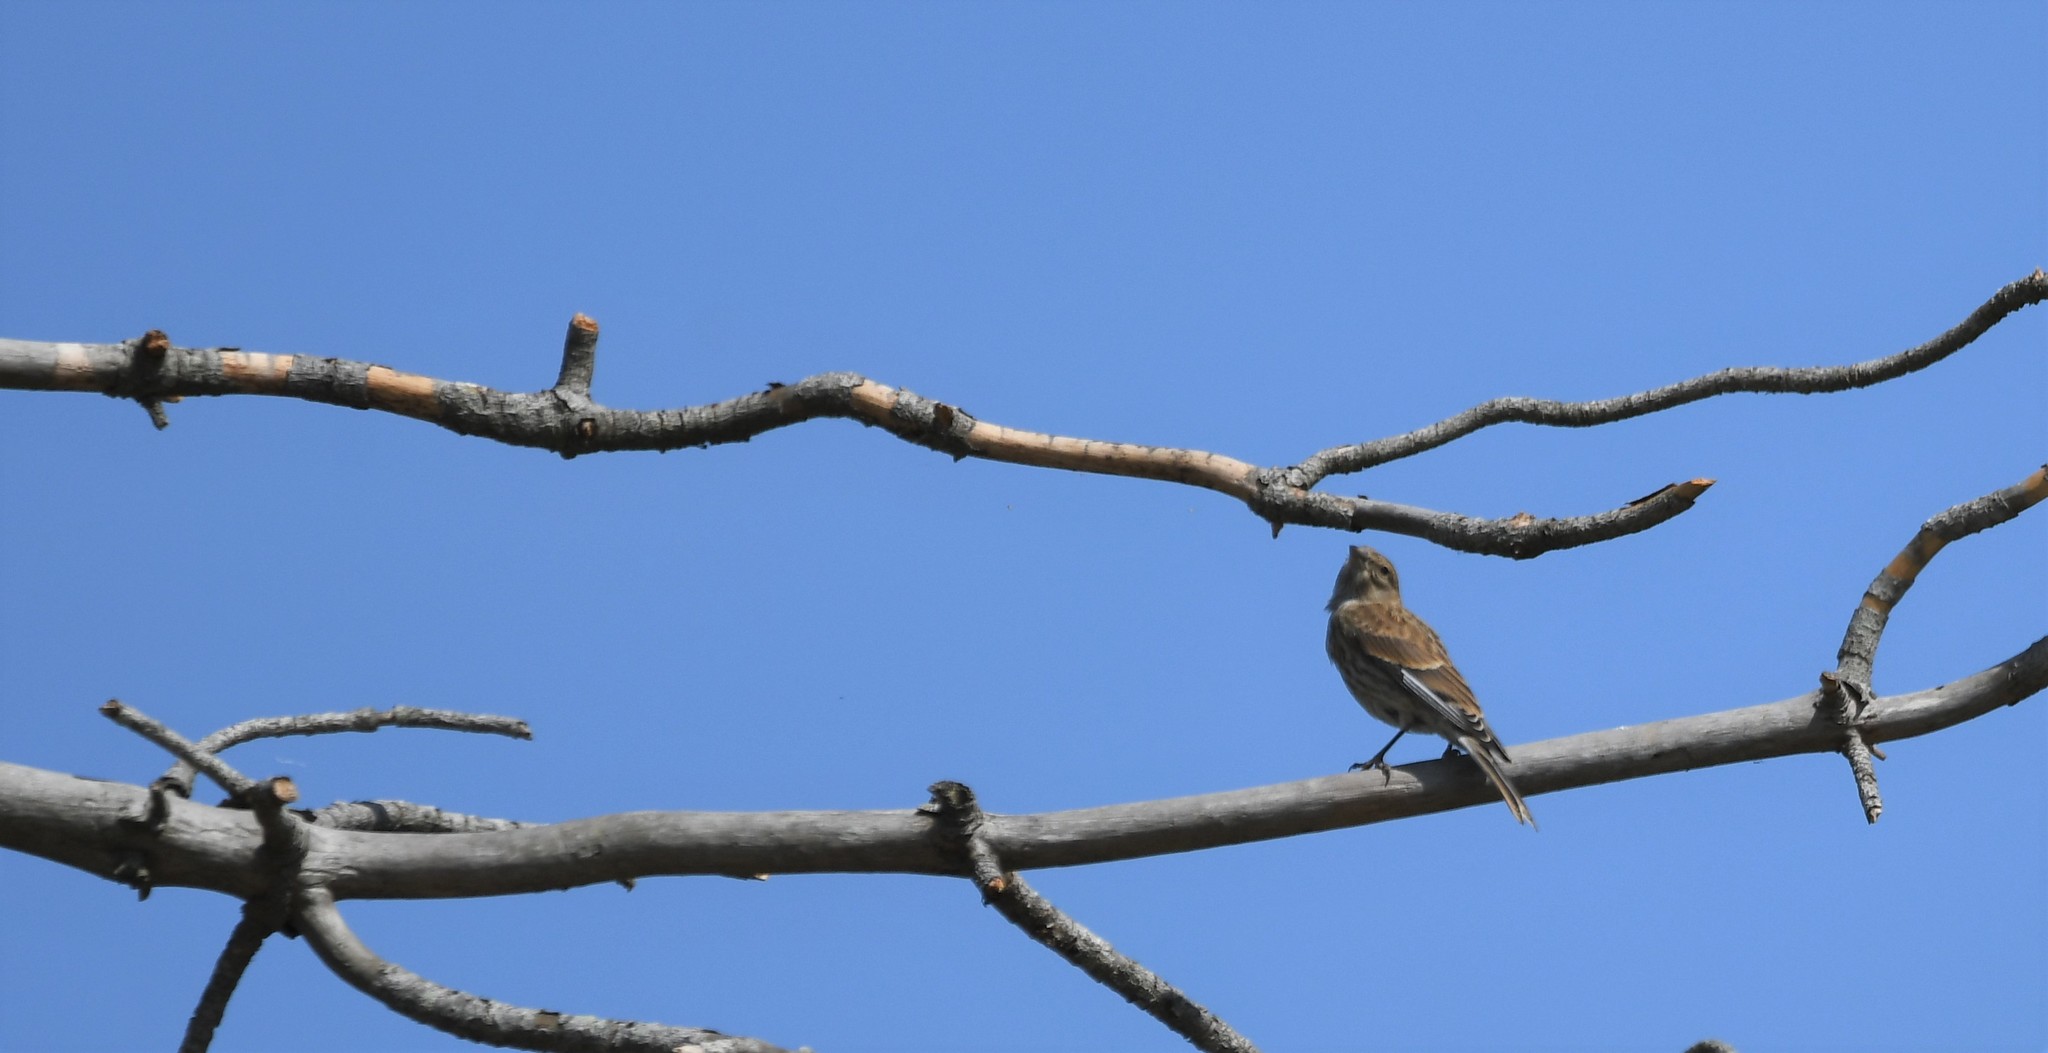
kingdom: Animalia
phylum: Chordata
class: Aves
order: Passeriformes
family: Fringillidae
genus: Linaria
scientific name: Linaria cannabina
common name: Common linnet
